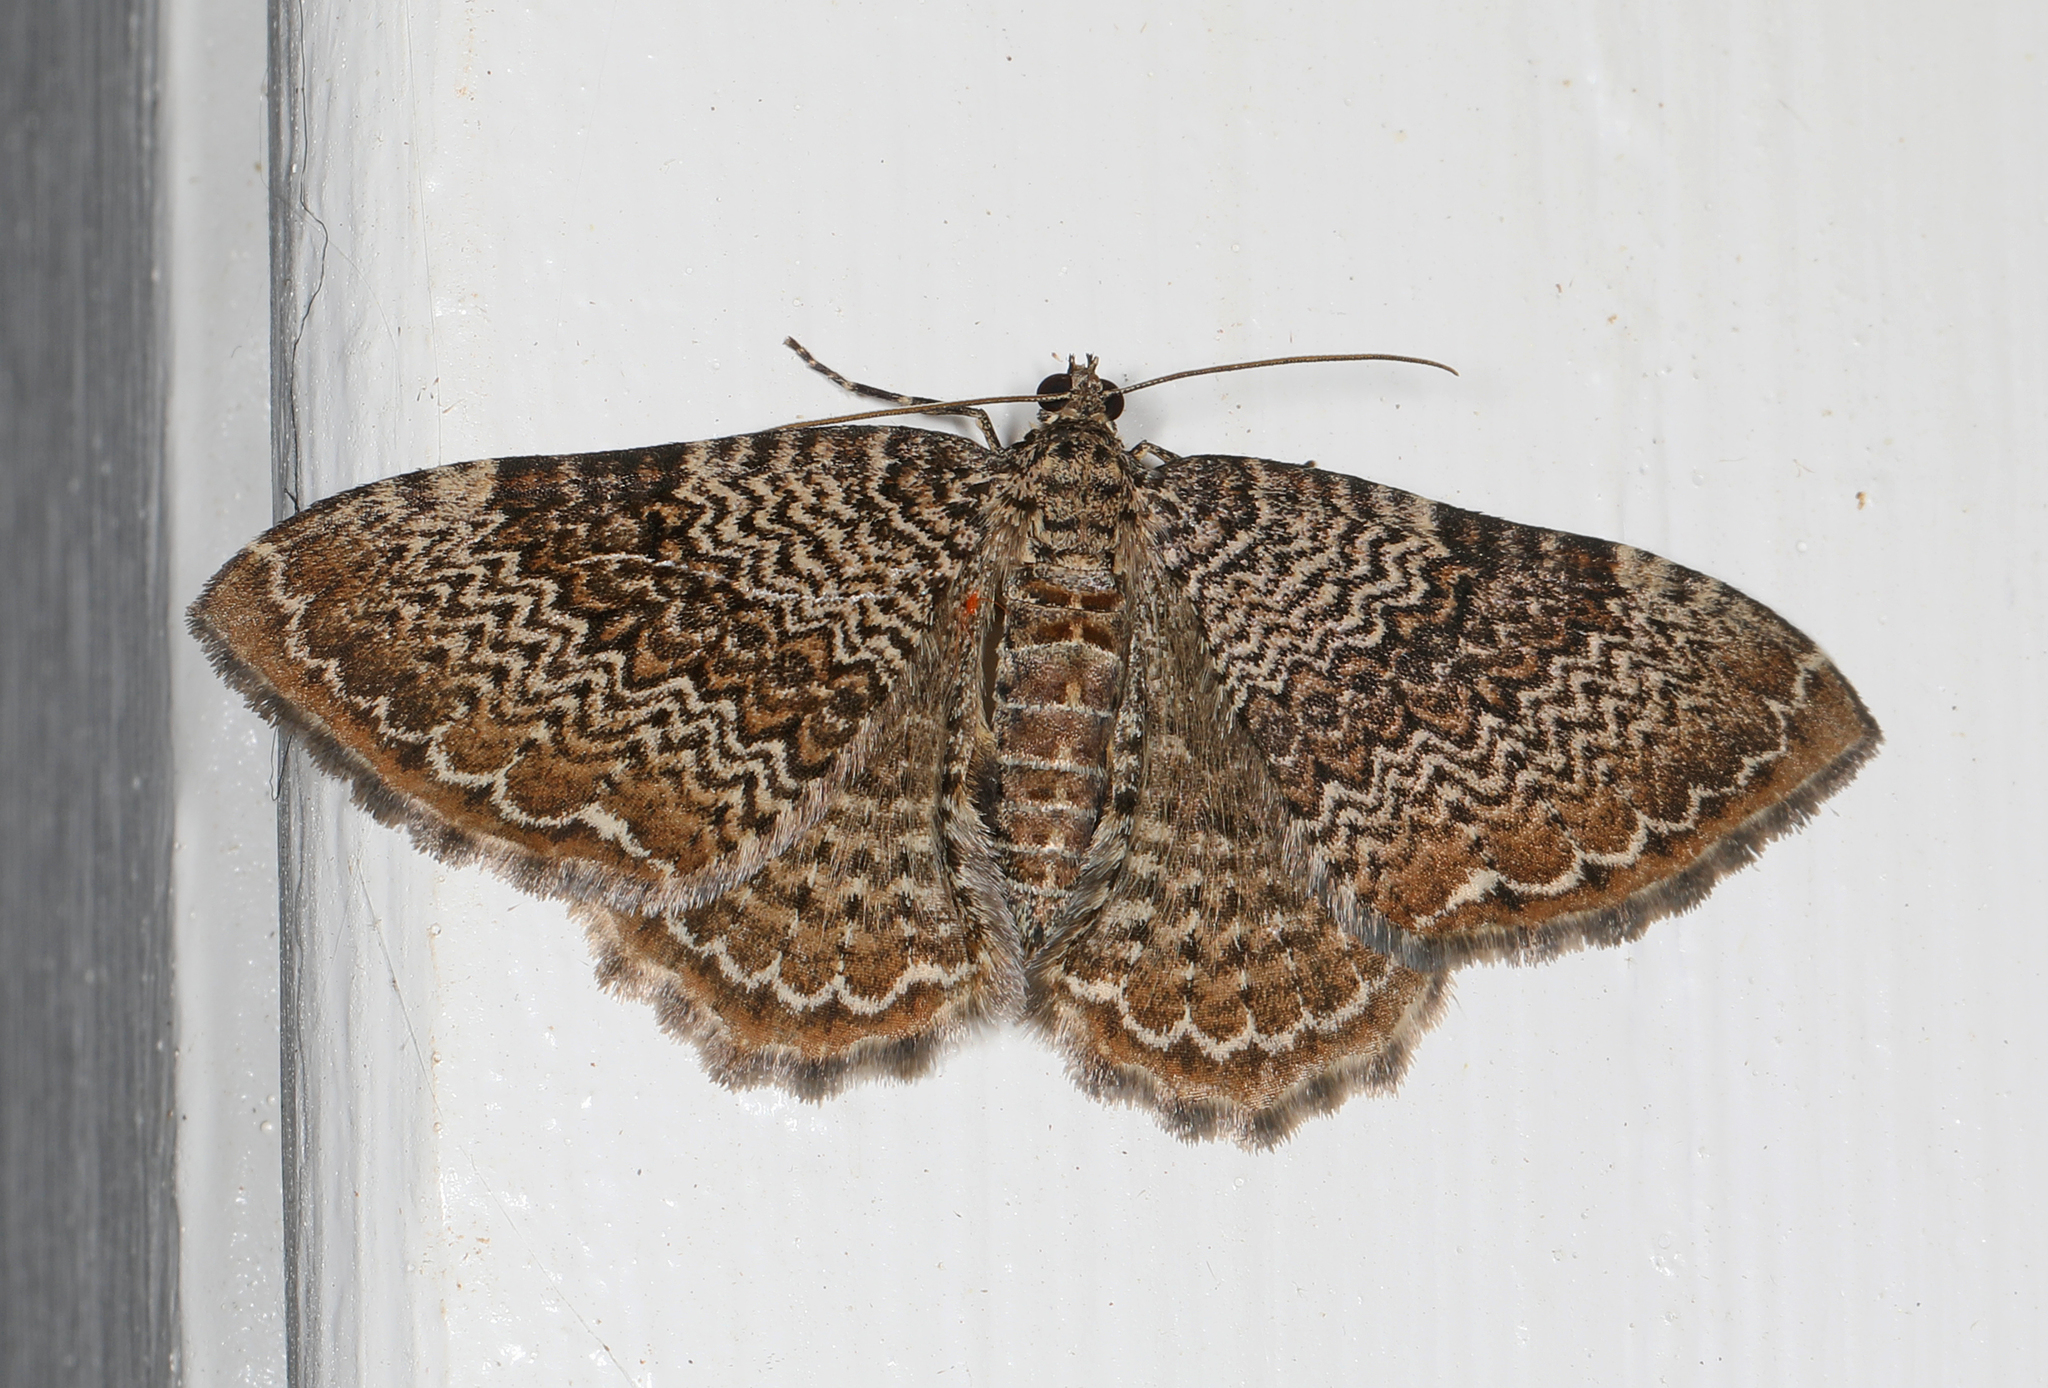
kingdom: Animalia
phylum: Arthropoda
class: Insecta
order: Lepidoptera
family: Geometridae
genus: Rheumaptera
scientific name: Rheumaptera prunivorata
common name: Cherry scallop shell moth
